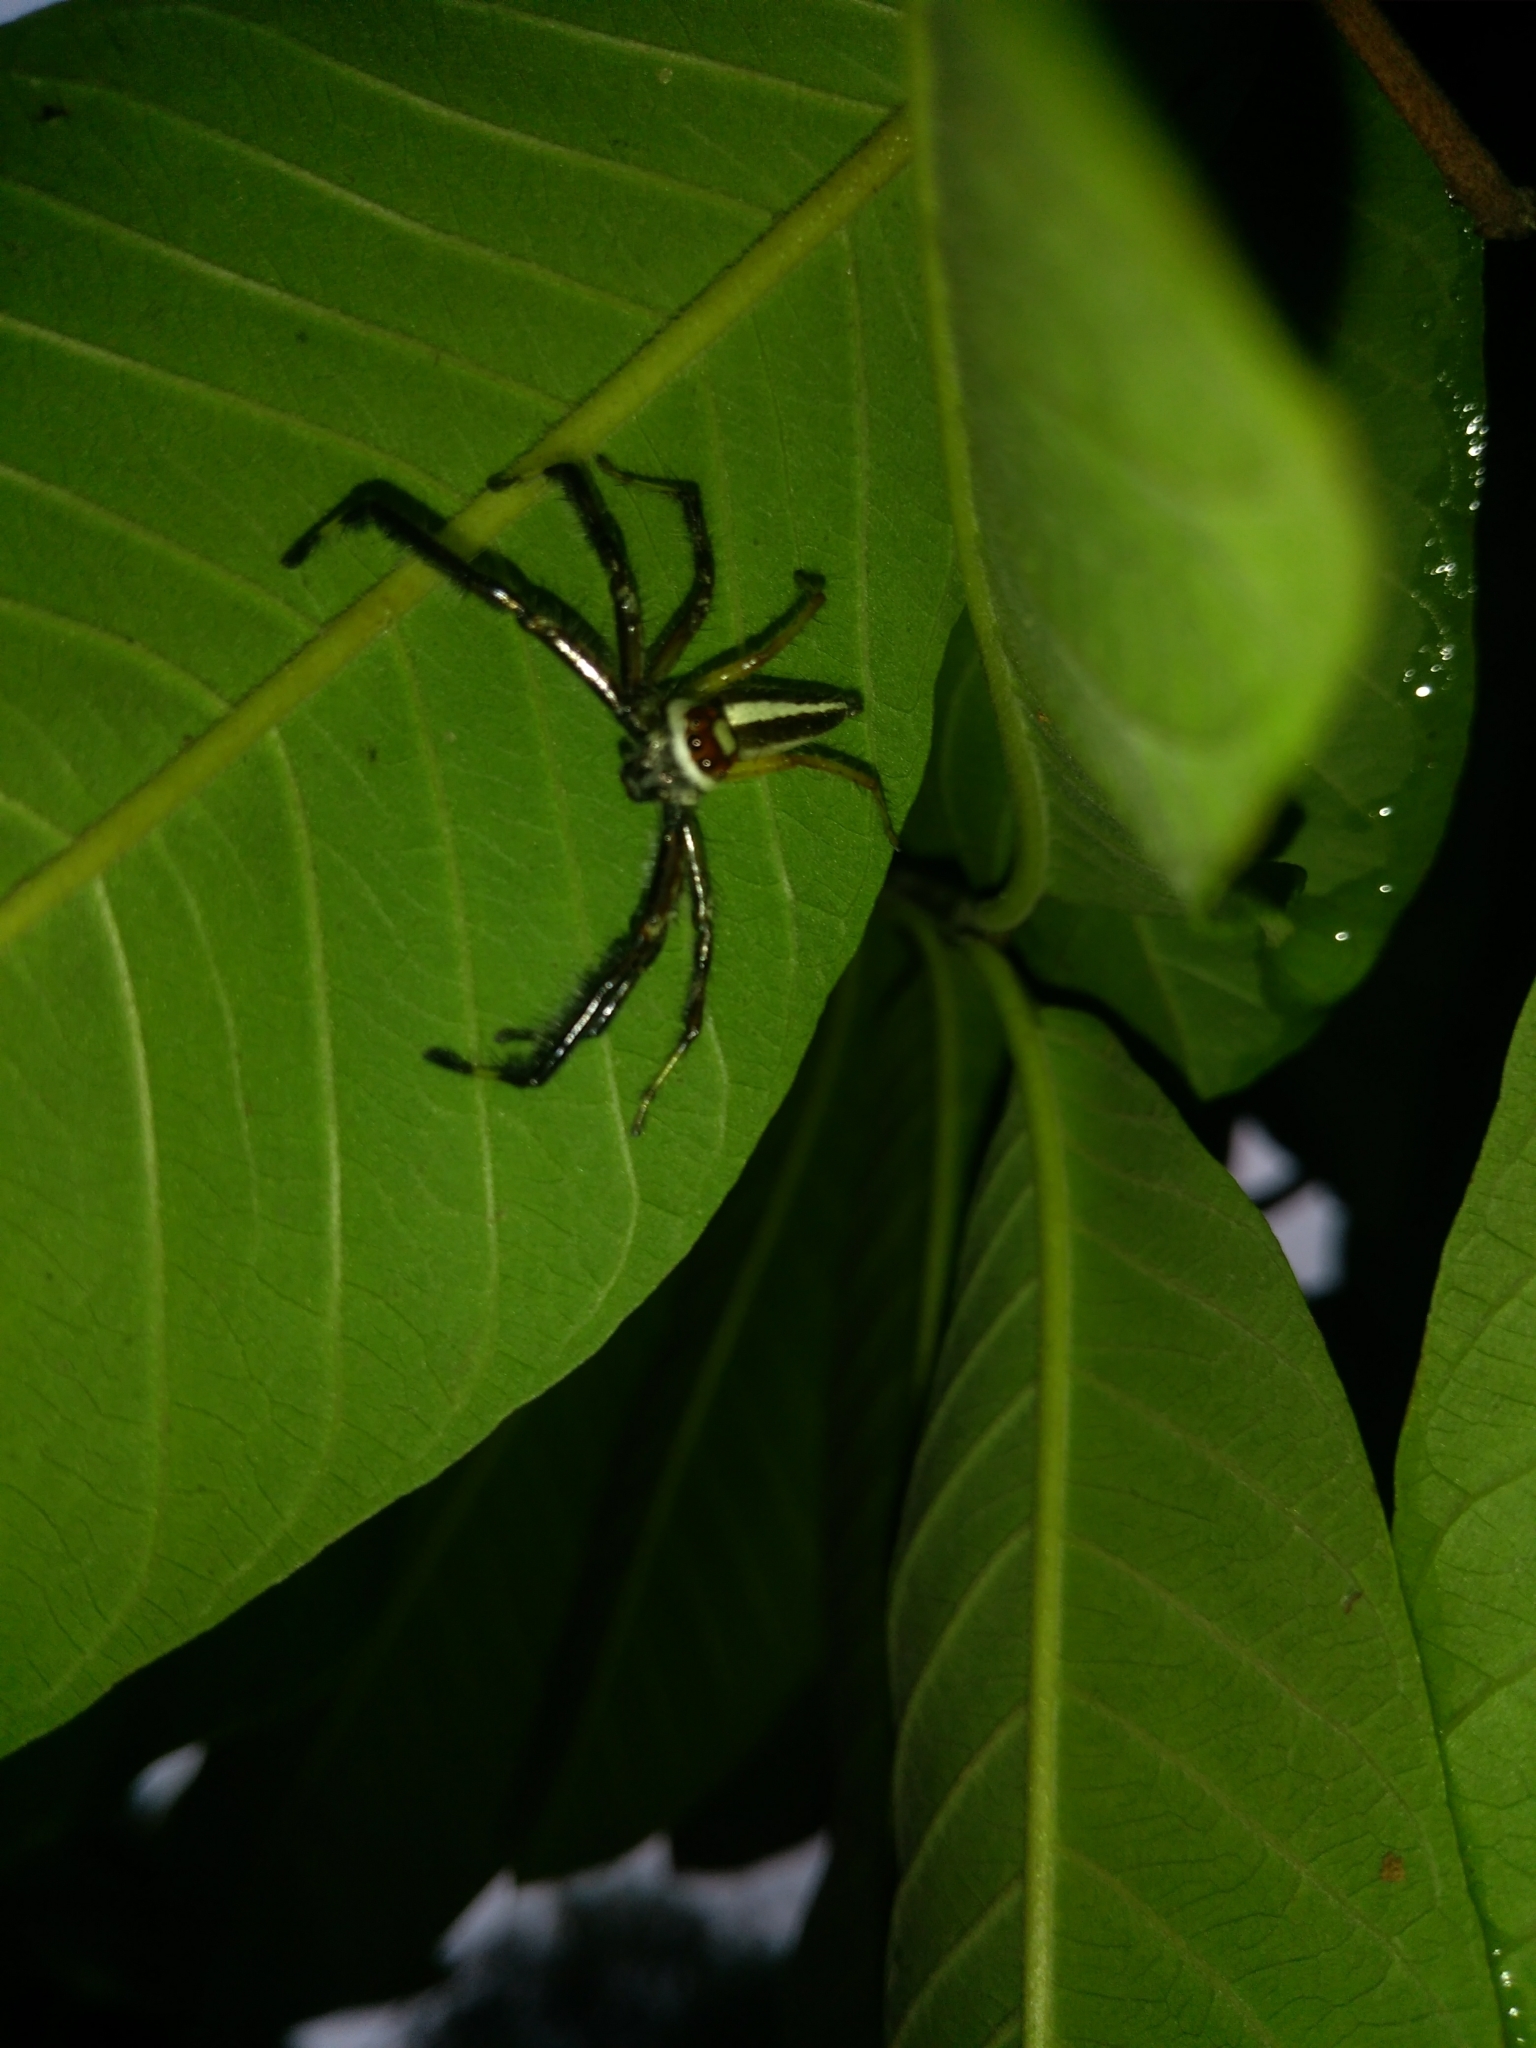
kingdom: Animalia
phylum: Arthropoda
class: Arachnida
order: Araneae
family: Salticidae
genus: Telamonia
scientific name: Telamonia dimidiata
